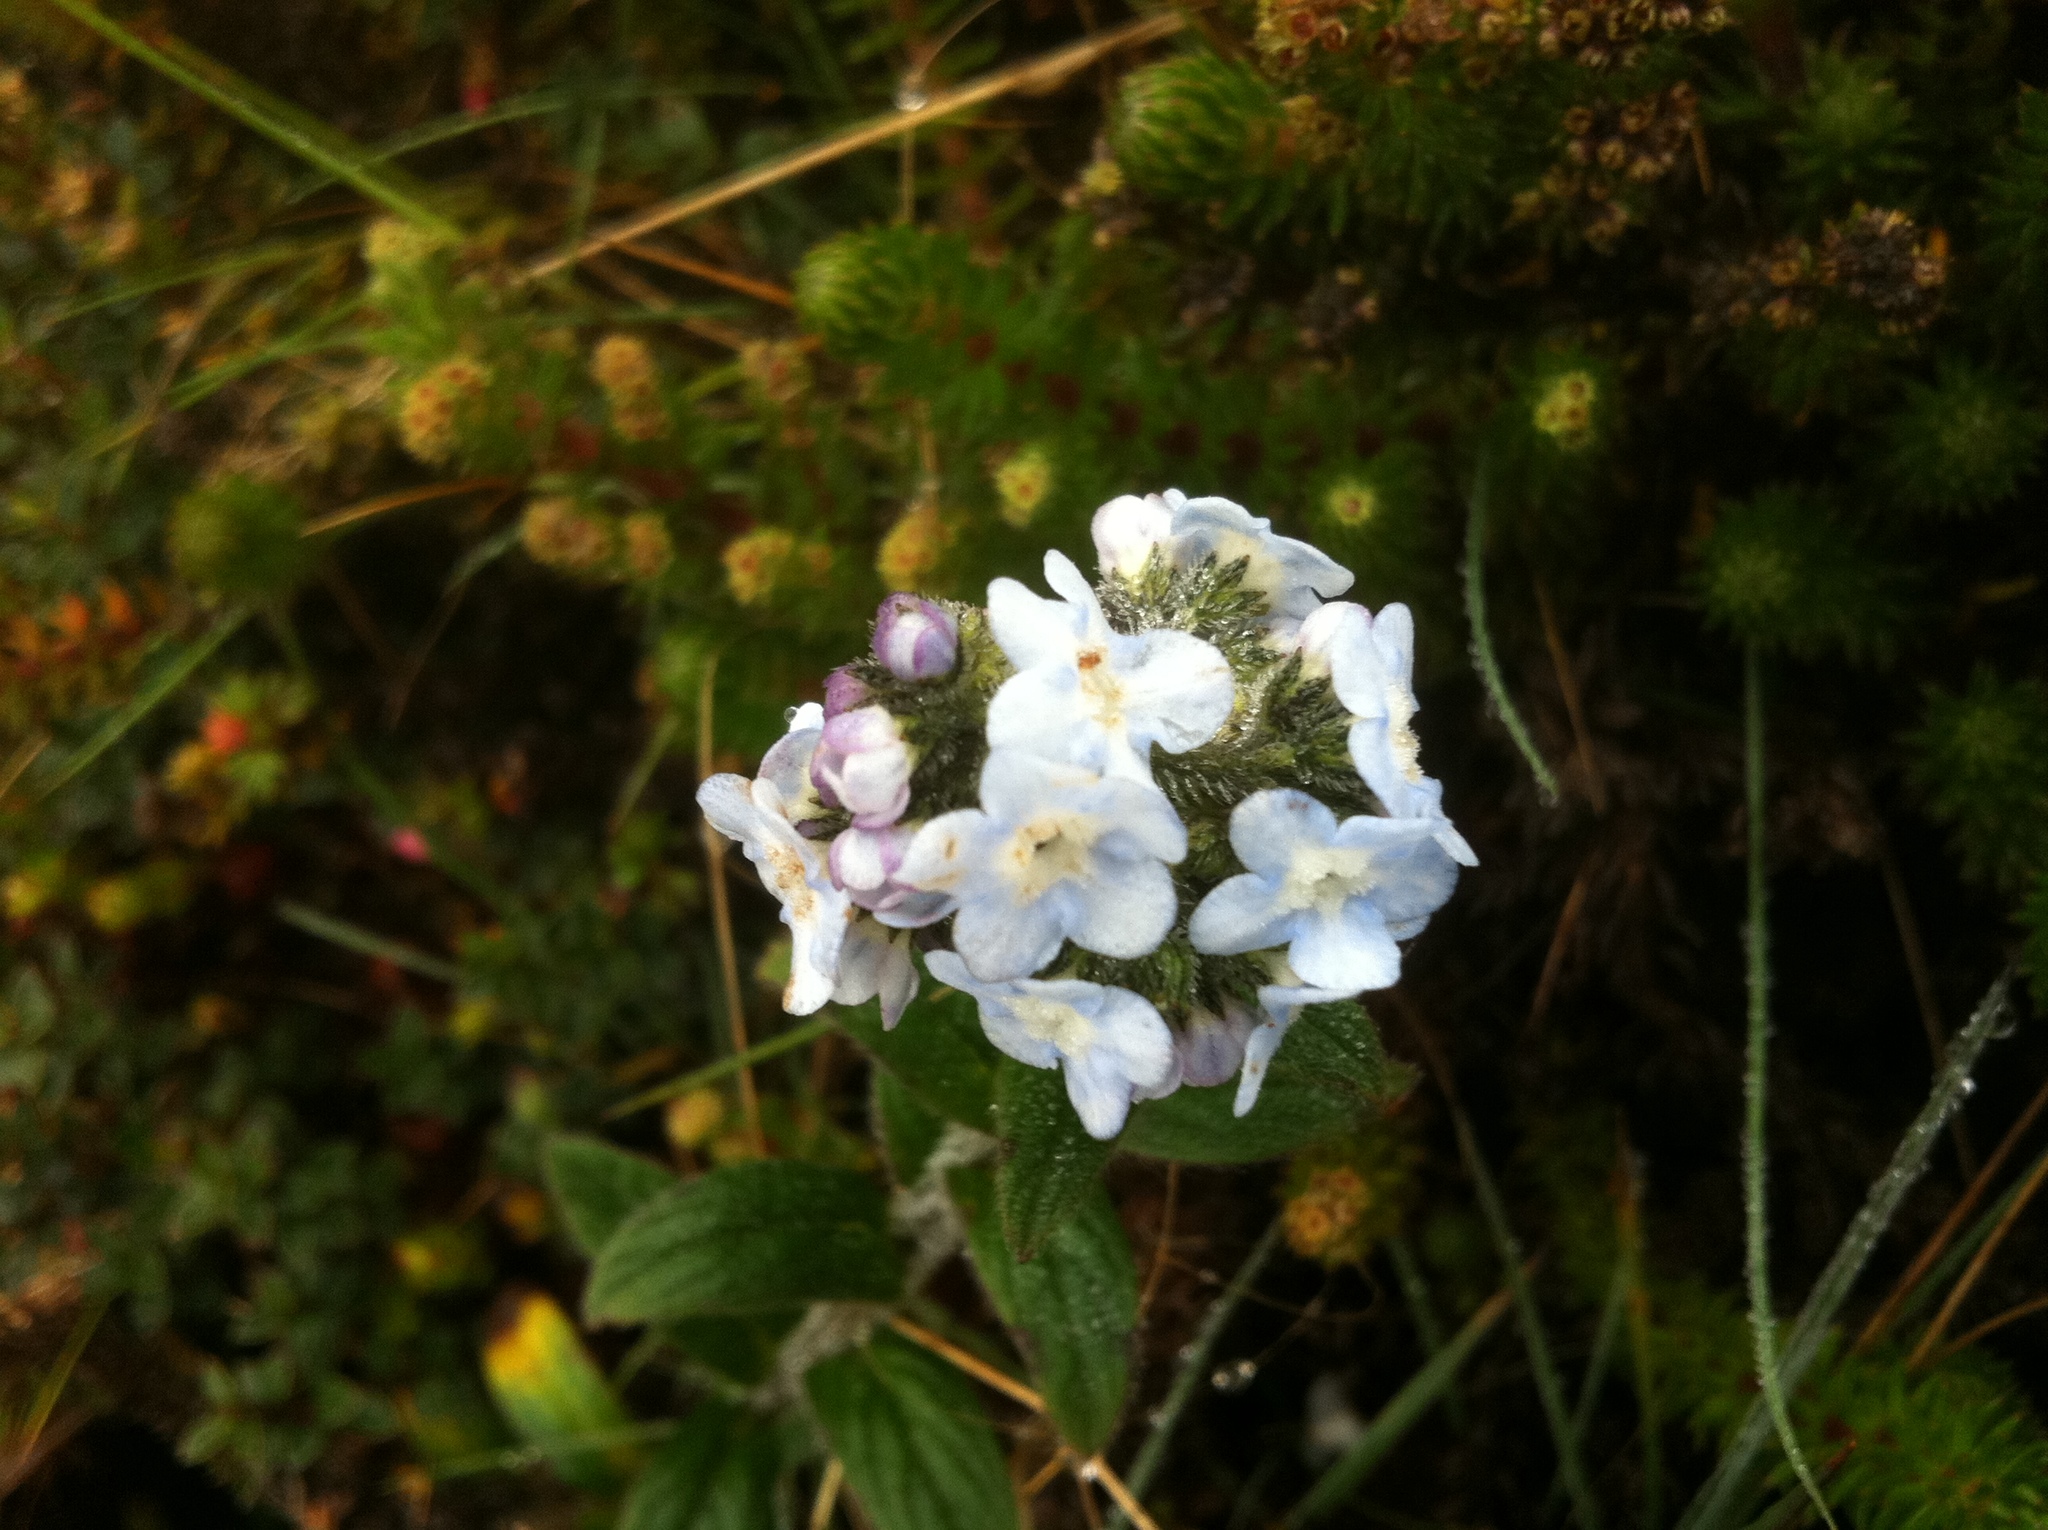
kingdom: Plantae
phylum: Tracheophyta
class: Magnoliopsida
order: Boraginales
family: Boraginaceae
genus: Moritzia
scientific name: Moritzia lindenii
